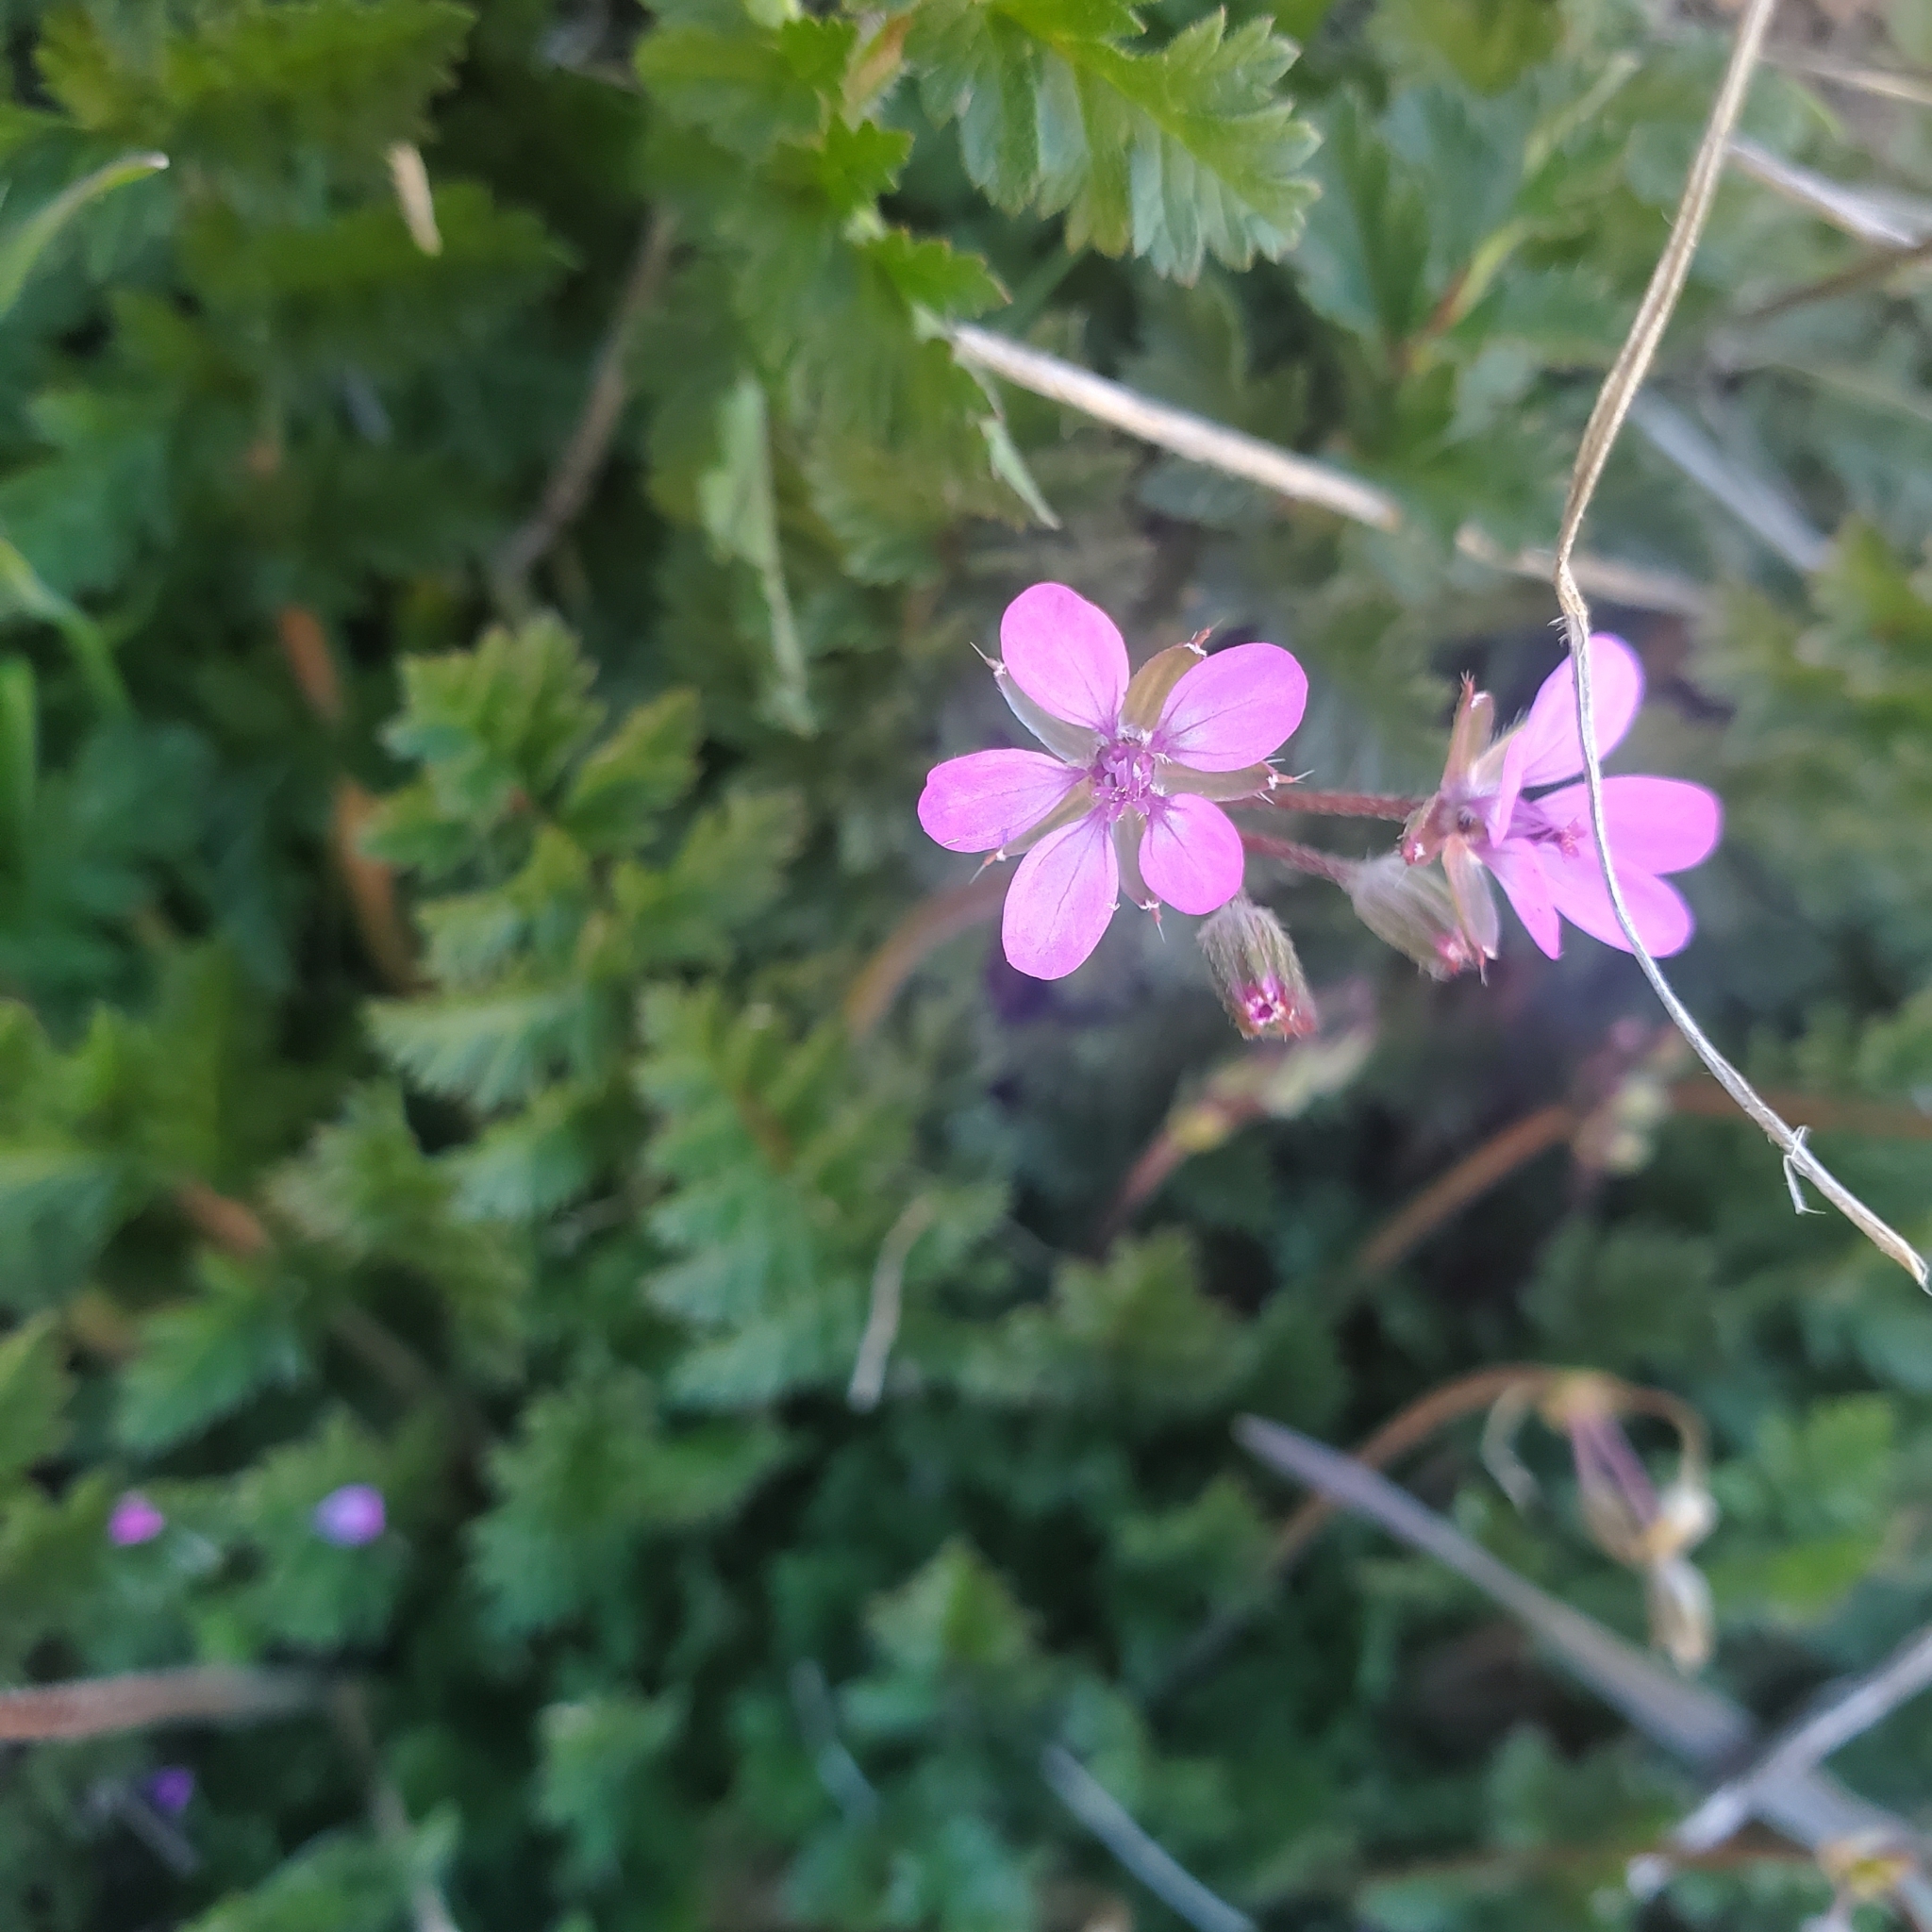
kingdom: Plantae
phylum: Tracheophyta
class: Magnoliopsida
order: Geraniales
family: Geraniaceae
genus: Erodium
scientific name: Erodium cicutarium
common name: Common stork's-bill
